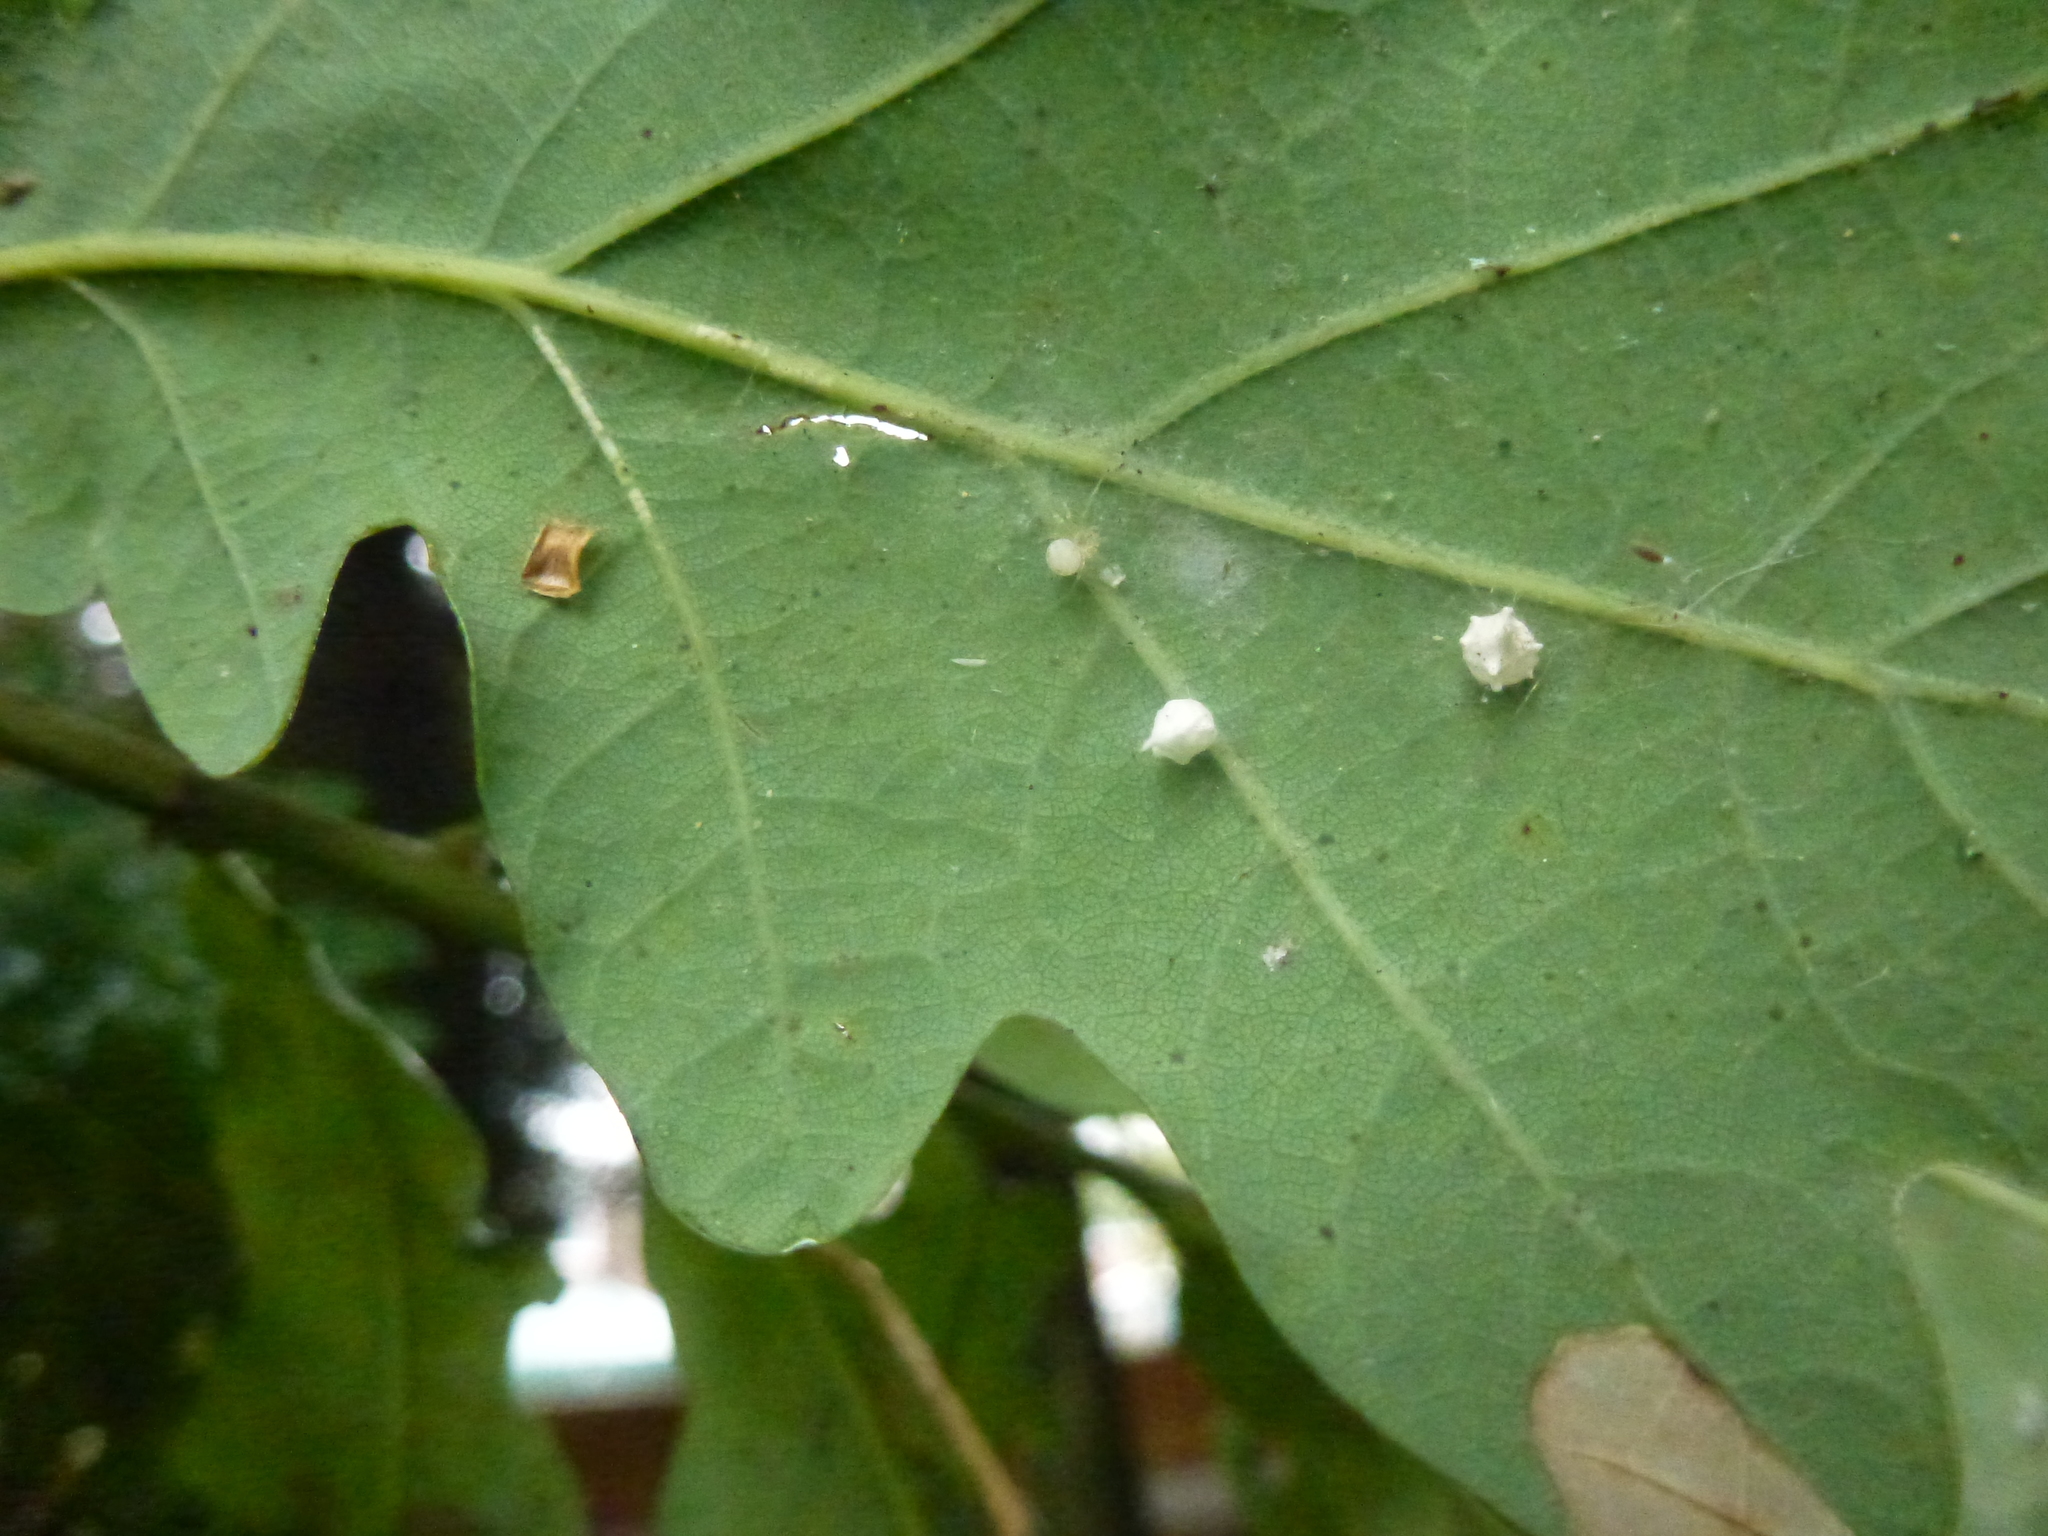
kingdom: Animalia
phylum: Arthropoda
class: Arachnida
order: Araneae
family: Theridiidae
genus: Paidiscura
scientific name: Paidiscura pallens
